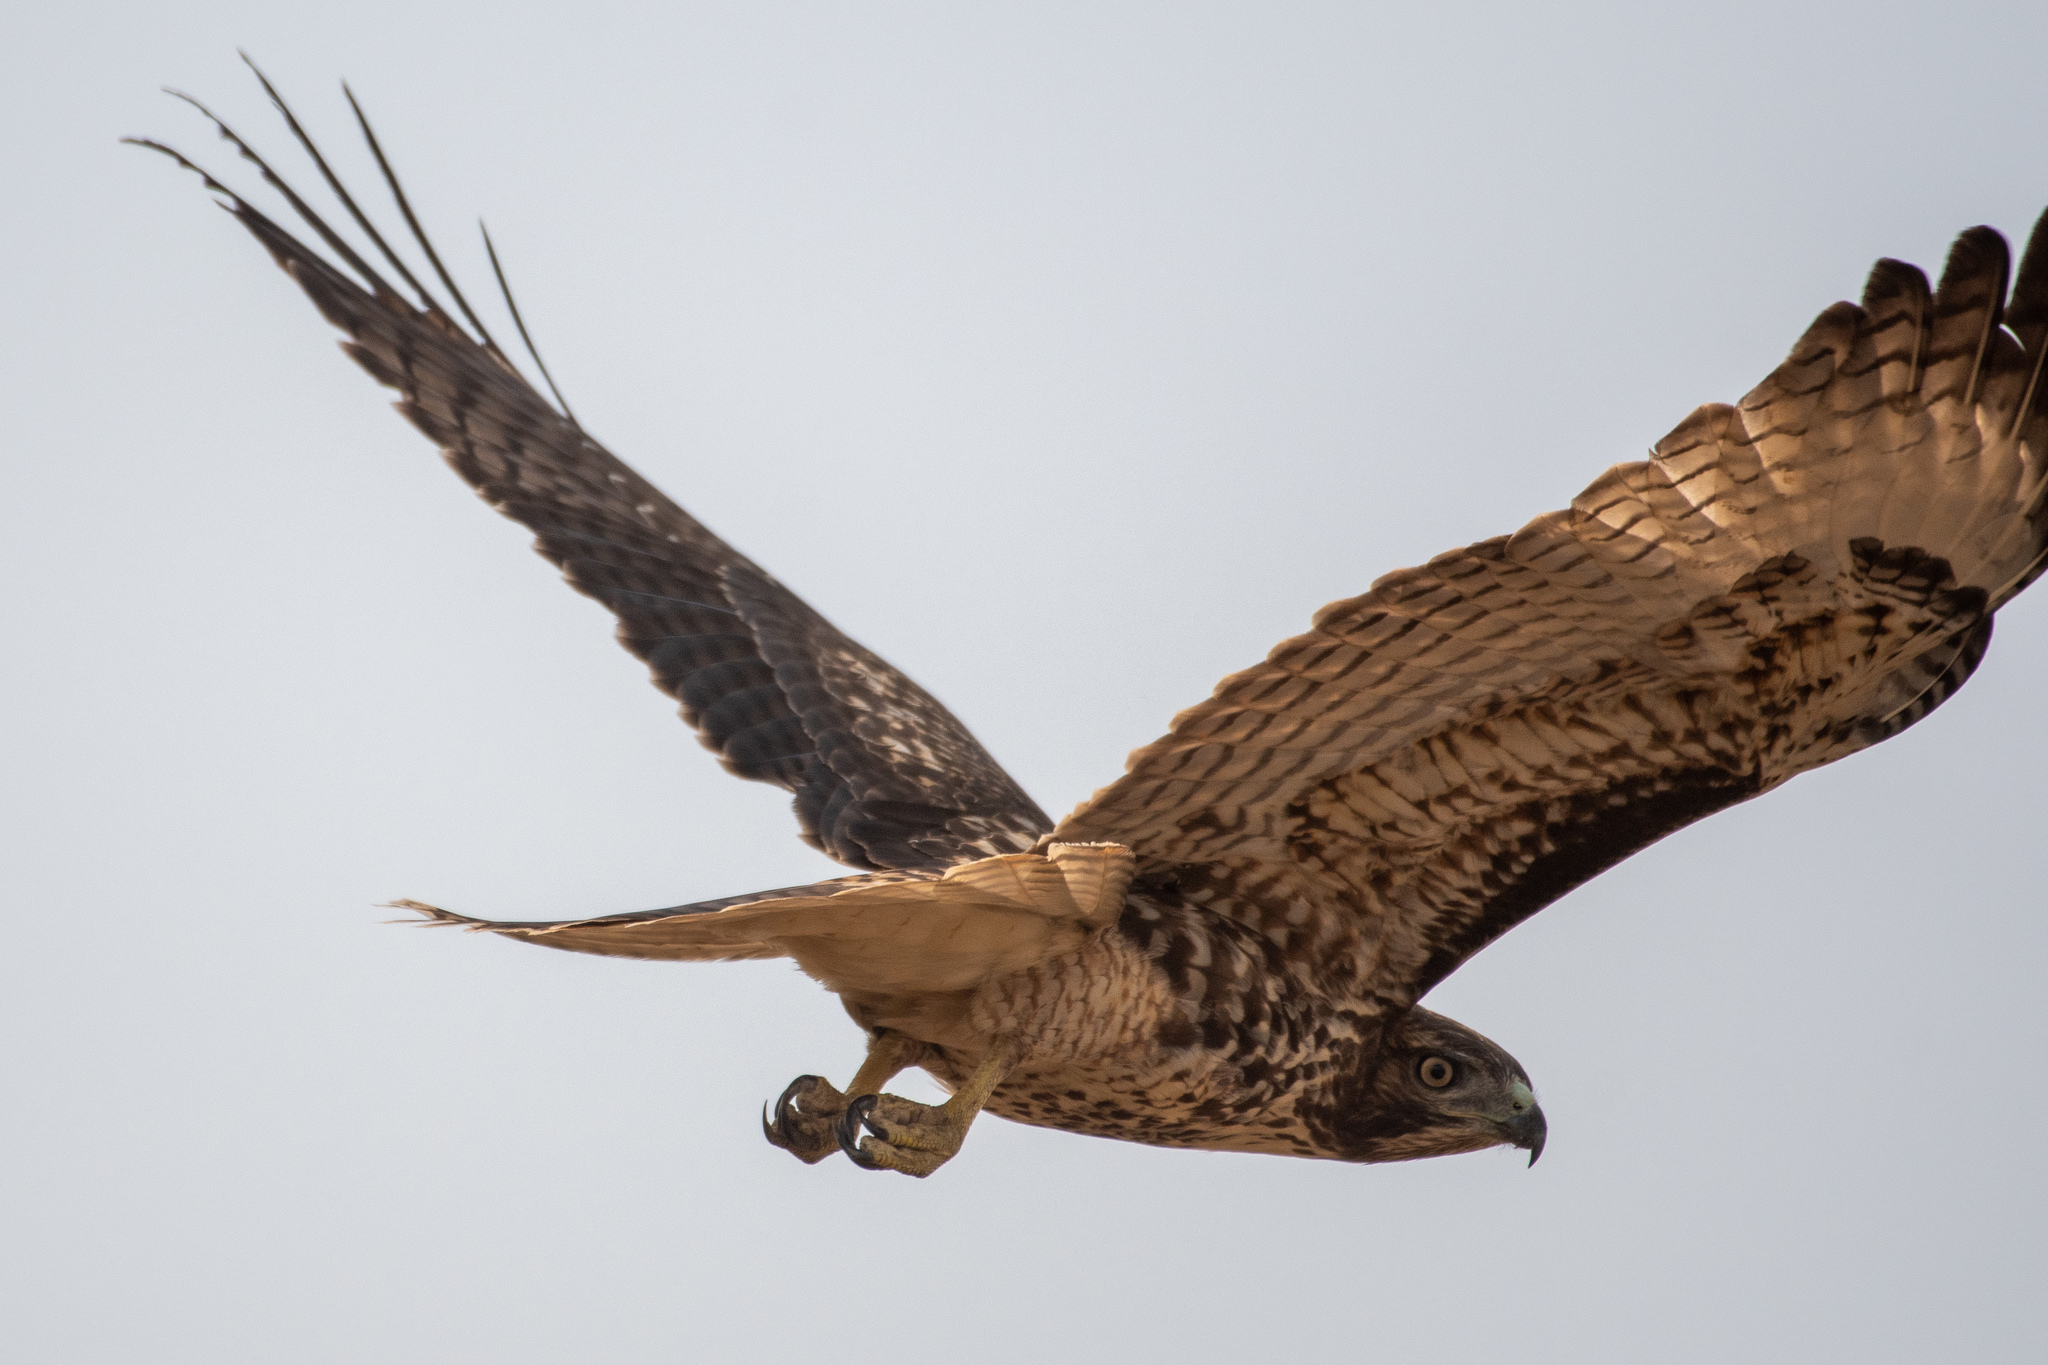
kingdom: Animalia
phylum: Chordata
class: Aves
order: Accipitriformes
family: Accipitridae
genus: Buteo
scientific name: Buteo jamaicensis
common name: Red-tailed hawk
